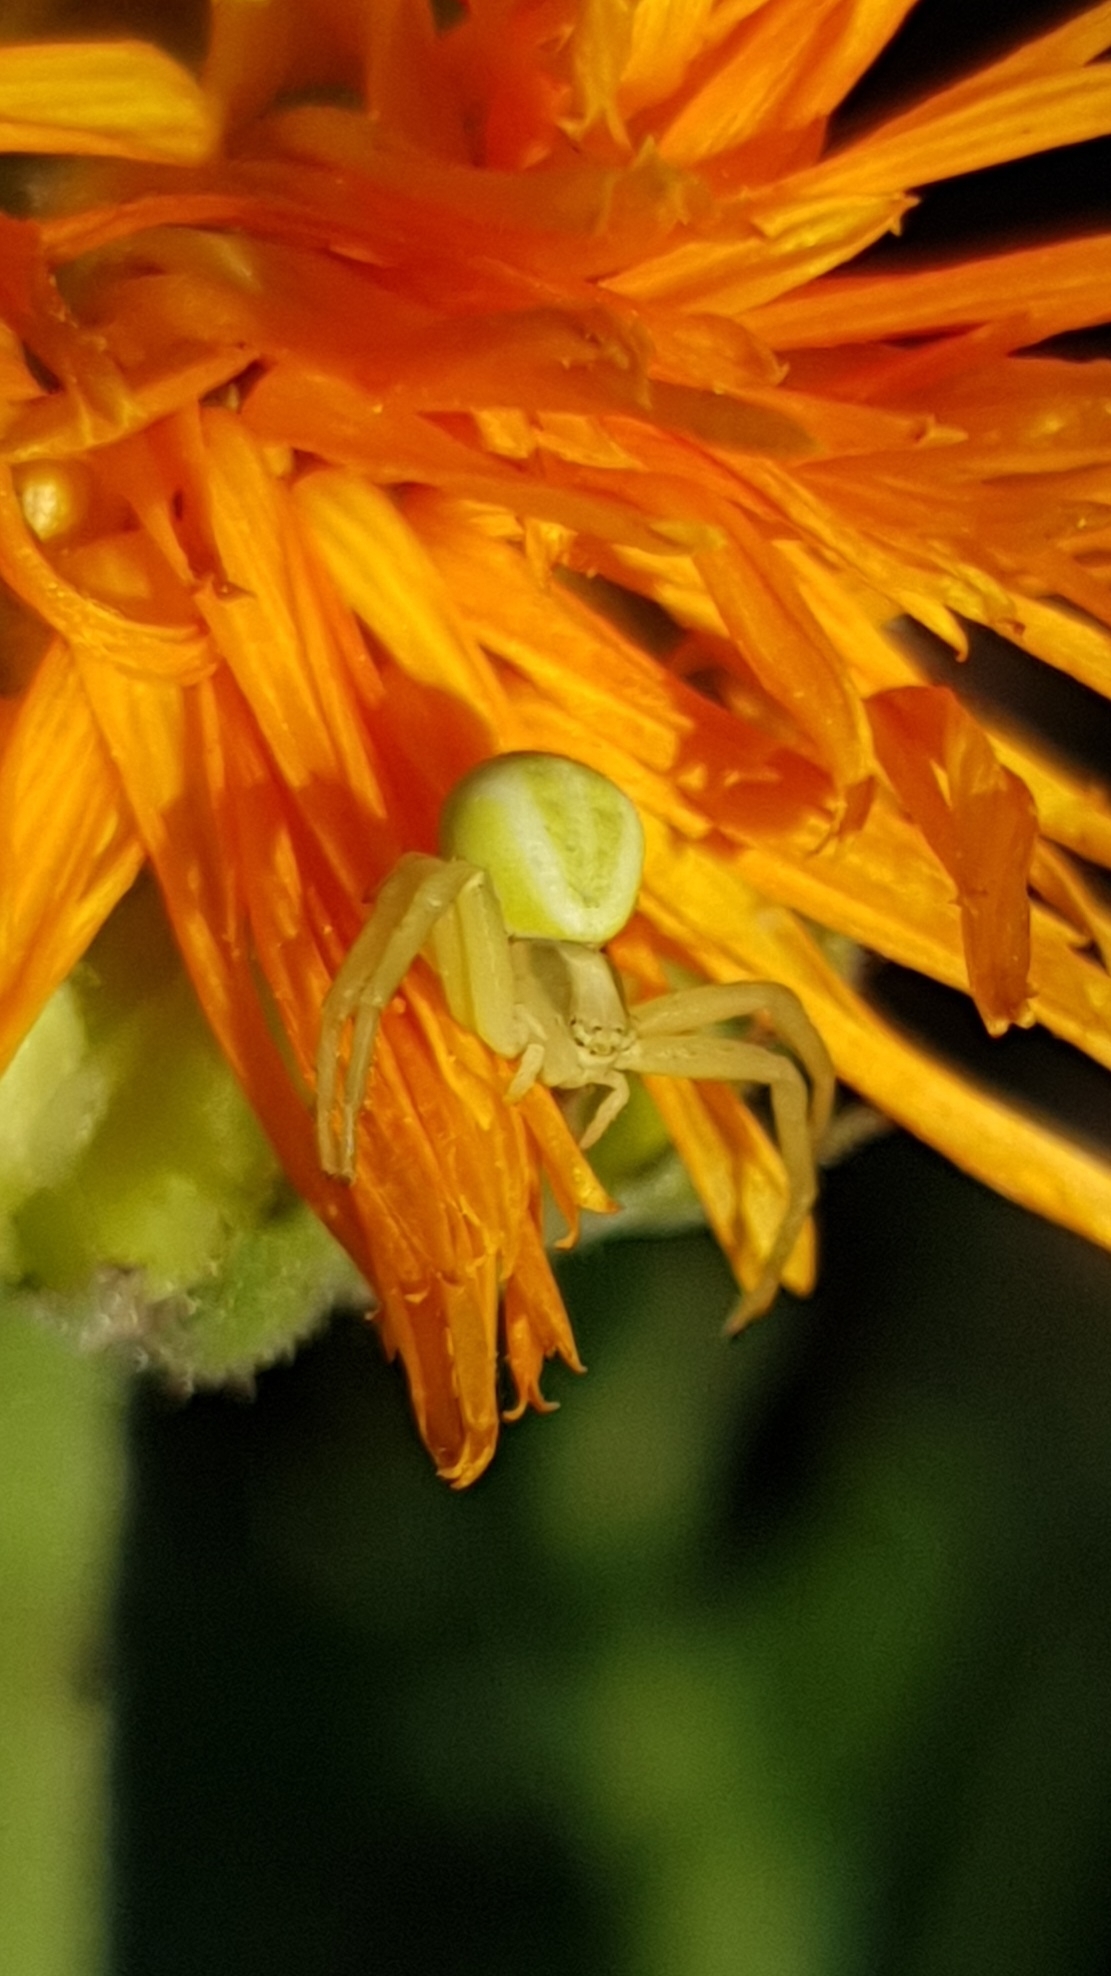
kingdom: Animalia
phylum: Arthropoda
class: Arachnida
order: Araneae
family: Thomisidae
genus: Misumena
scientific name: Misumena vatia
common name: Goldenrod crab spider
